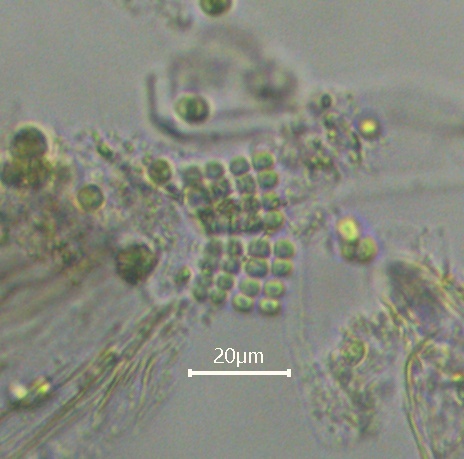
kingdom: Bacteria
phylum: Cyanobacteria
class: Cyanobacteriia
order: Cyanobacteriales
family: Chamaesiphonaceae
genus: Merismopedia
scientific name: Merismopedia punctata
